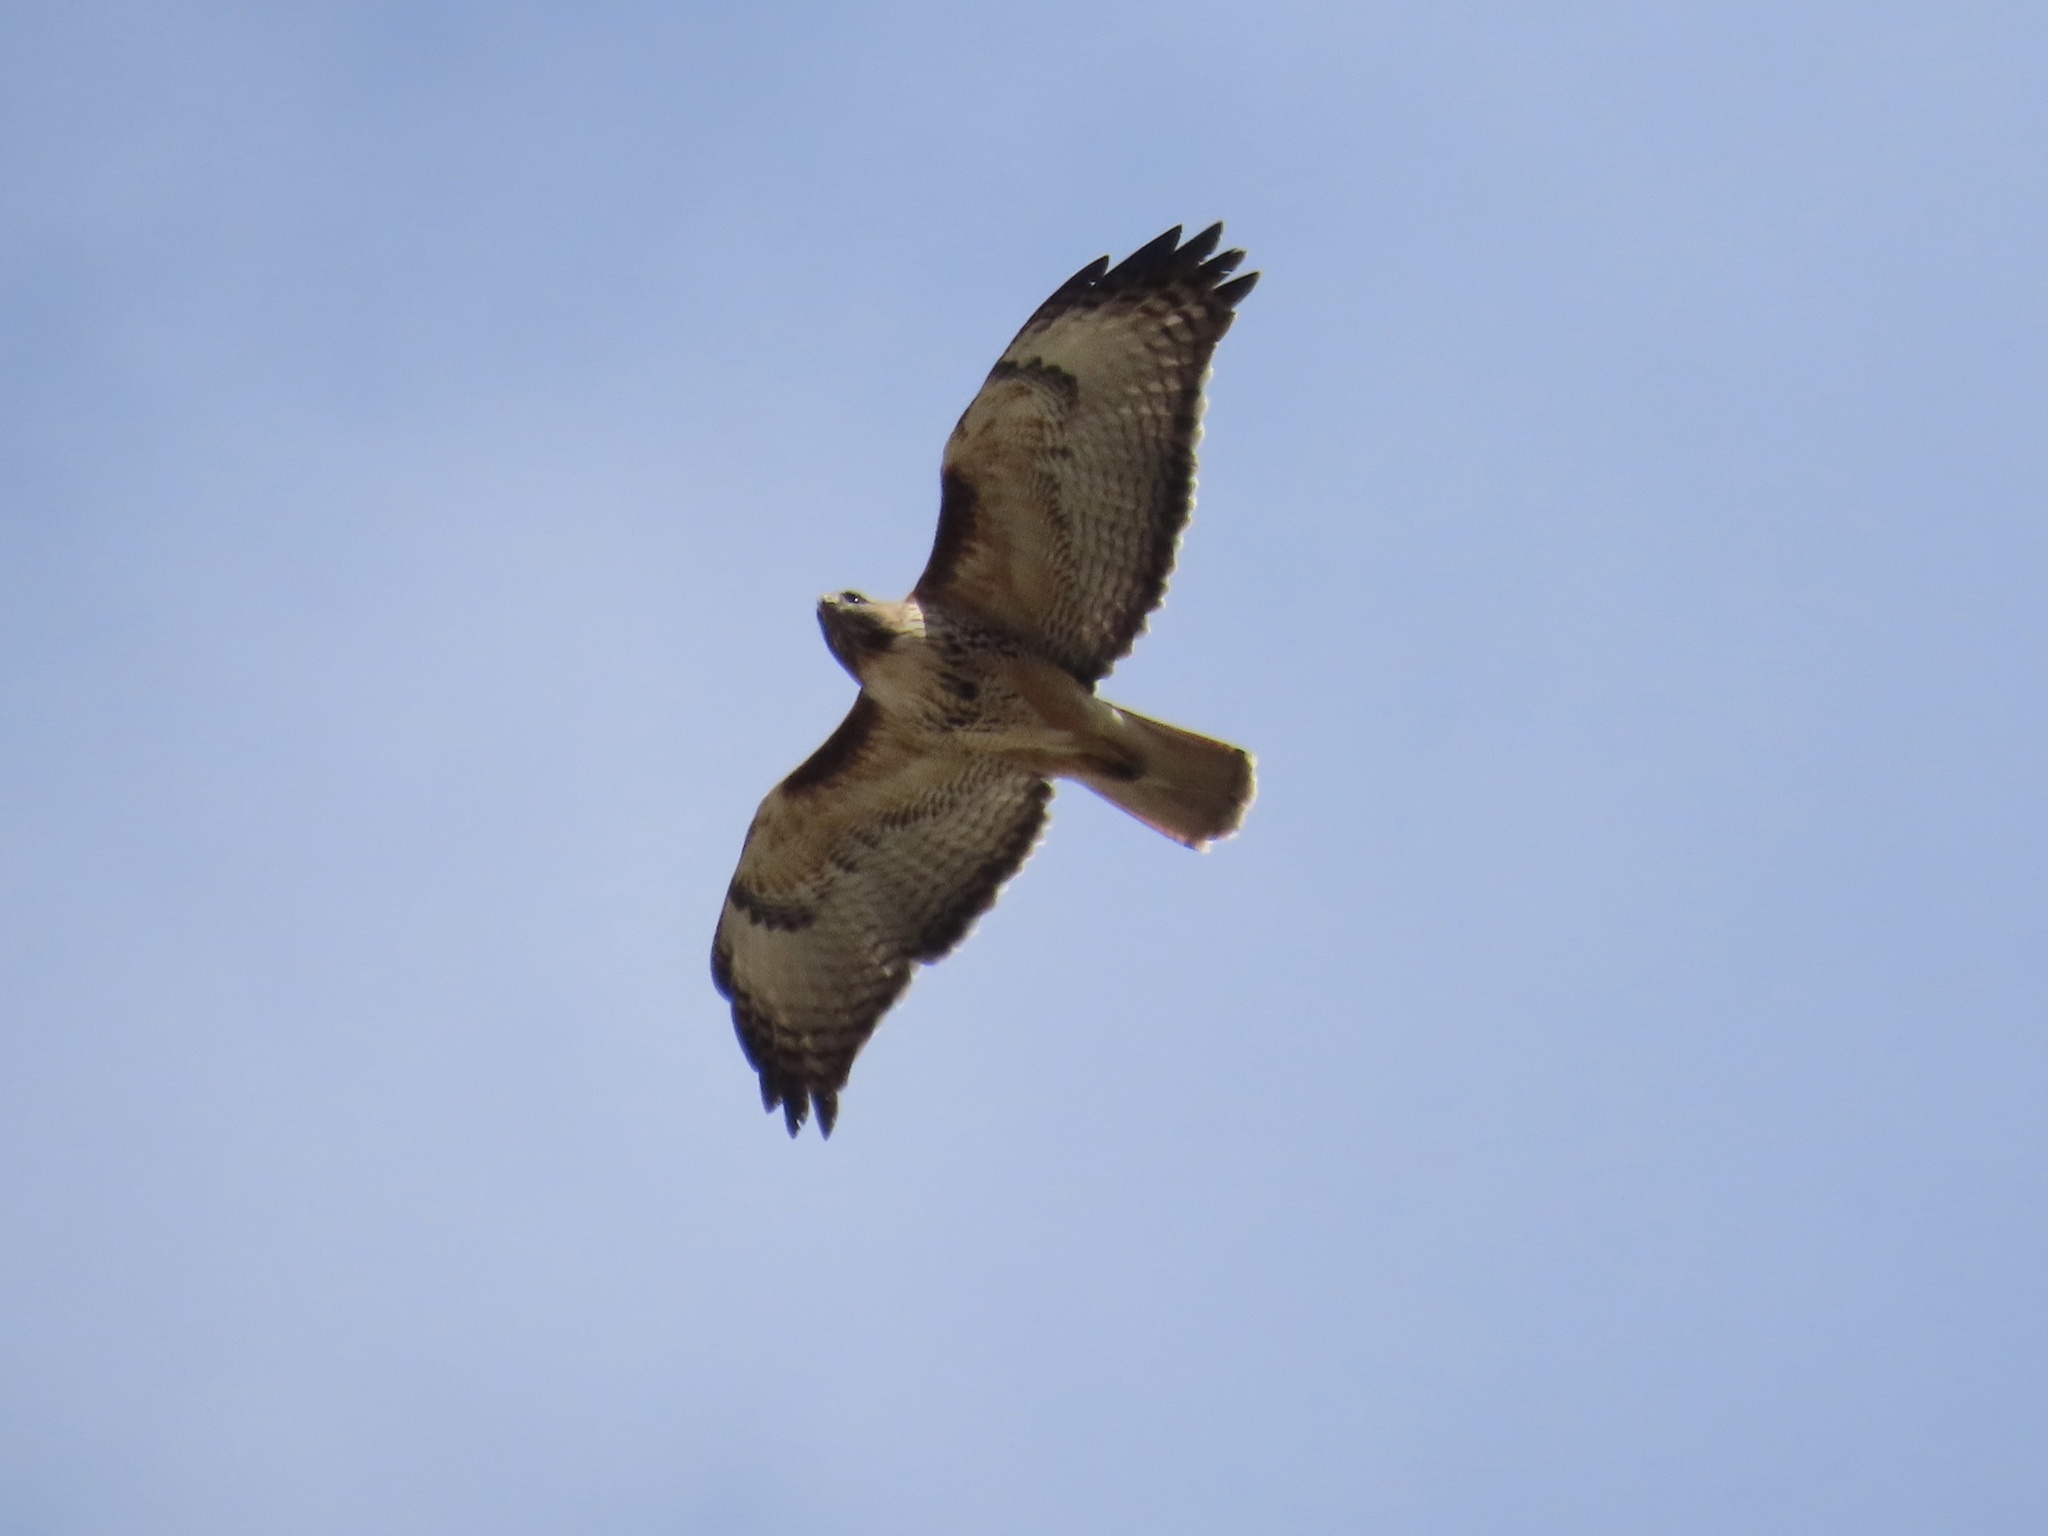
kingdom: Animalia
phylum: Chordata
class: Aves
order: Accipitriformes
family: Accipitridae
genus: Buteo
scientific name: Buteo jamaicensis
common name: Red-tailed hawk
